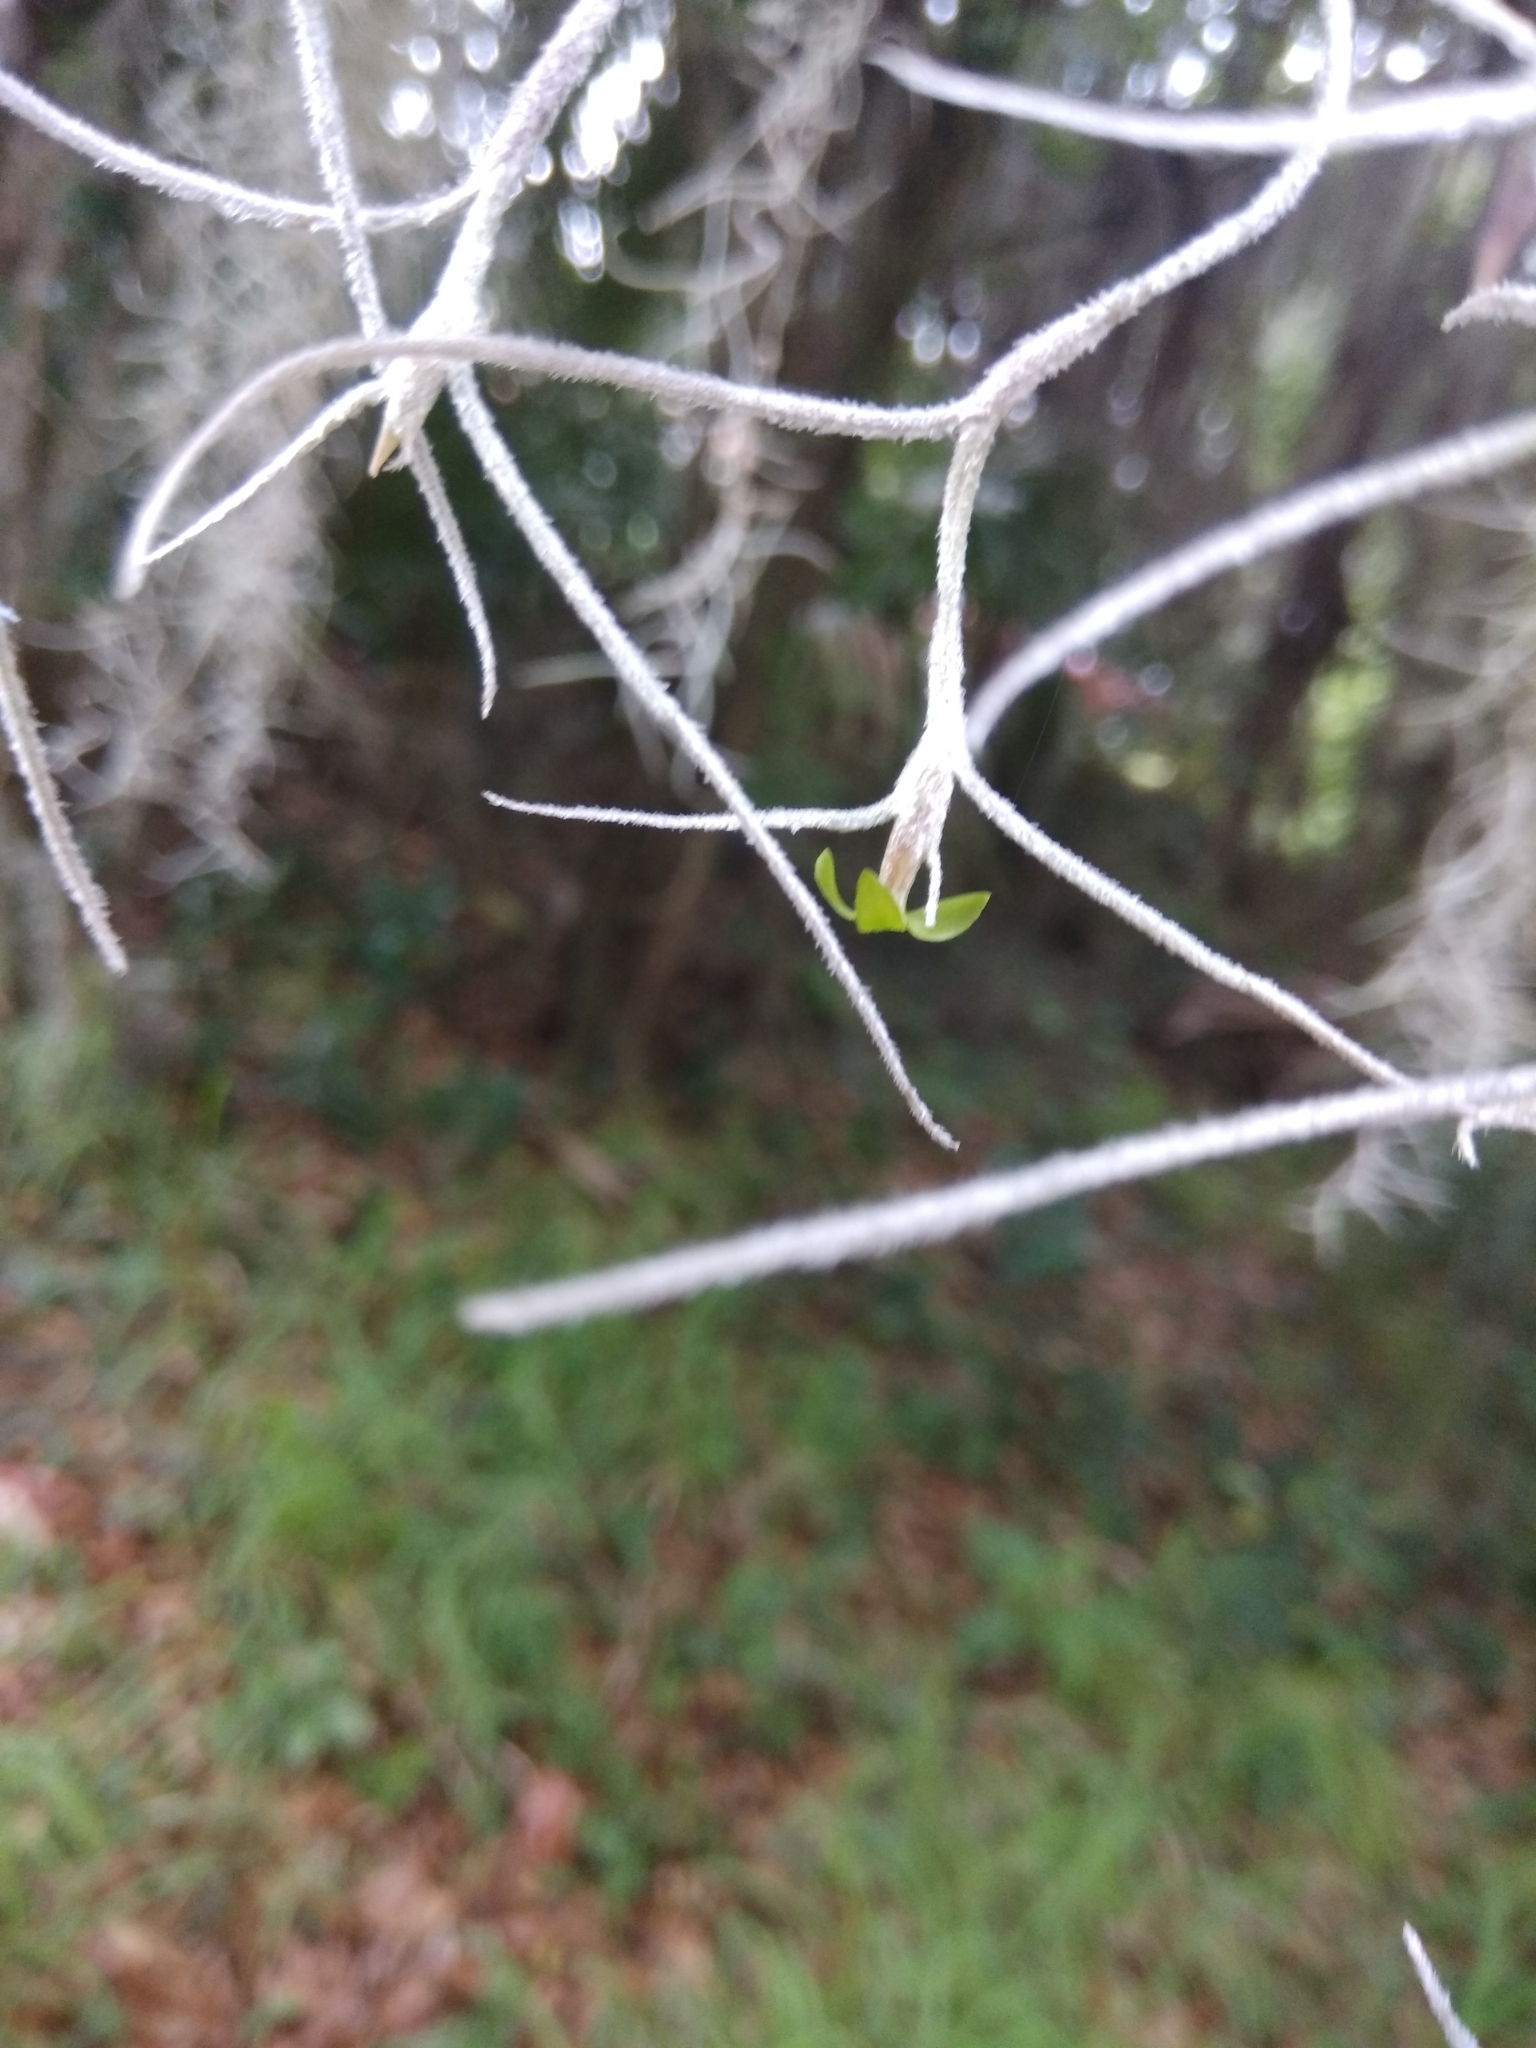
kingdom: Plantae
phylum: Tracheophyta
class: Liliopsida
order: Poales
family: Bromeliaceae
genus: Tillandsia
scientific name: Tillandsia usneoides
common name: Spanish moss
